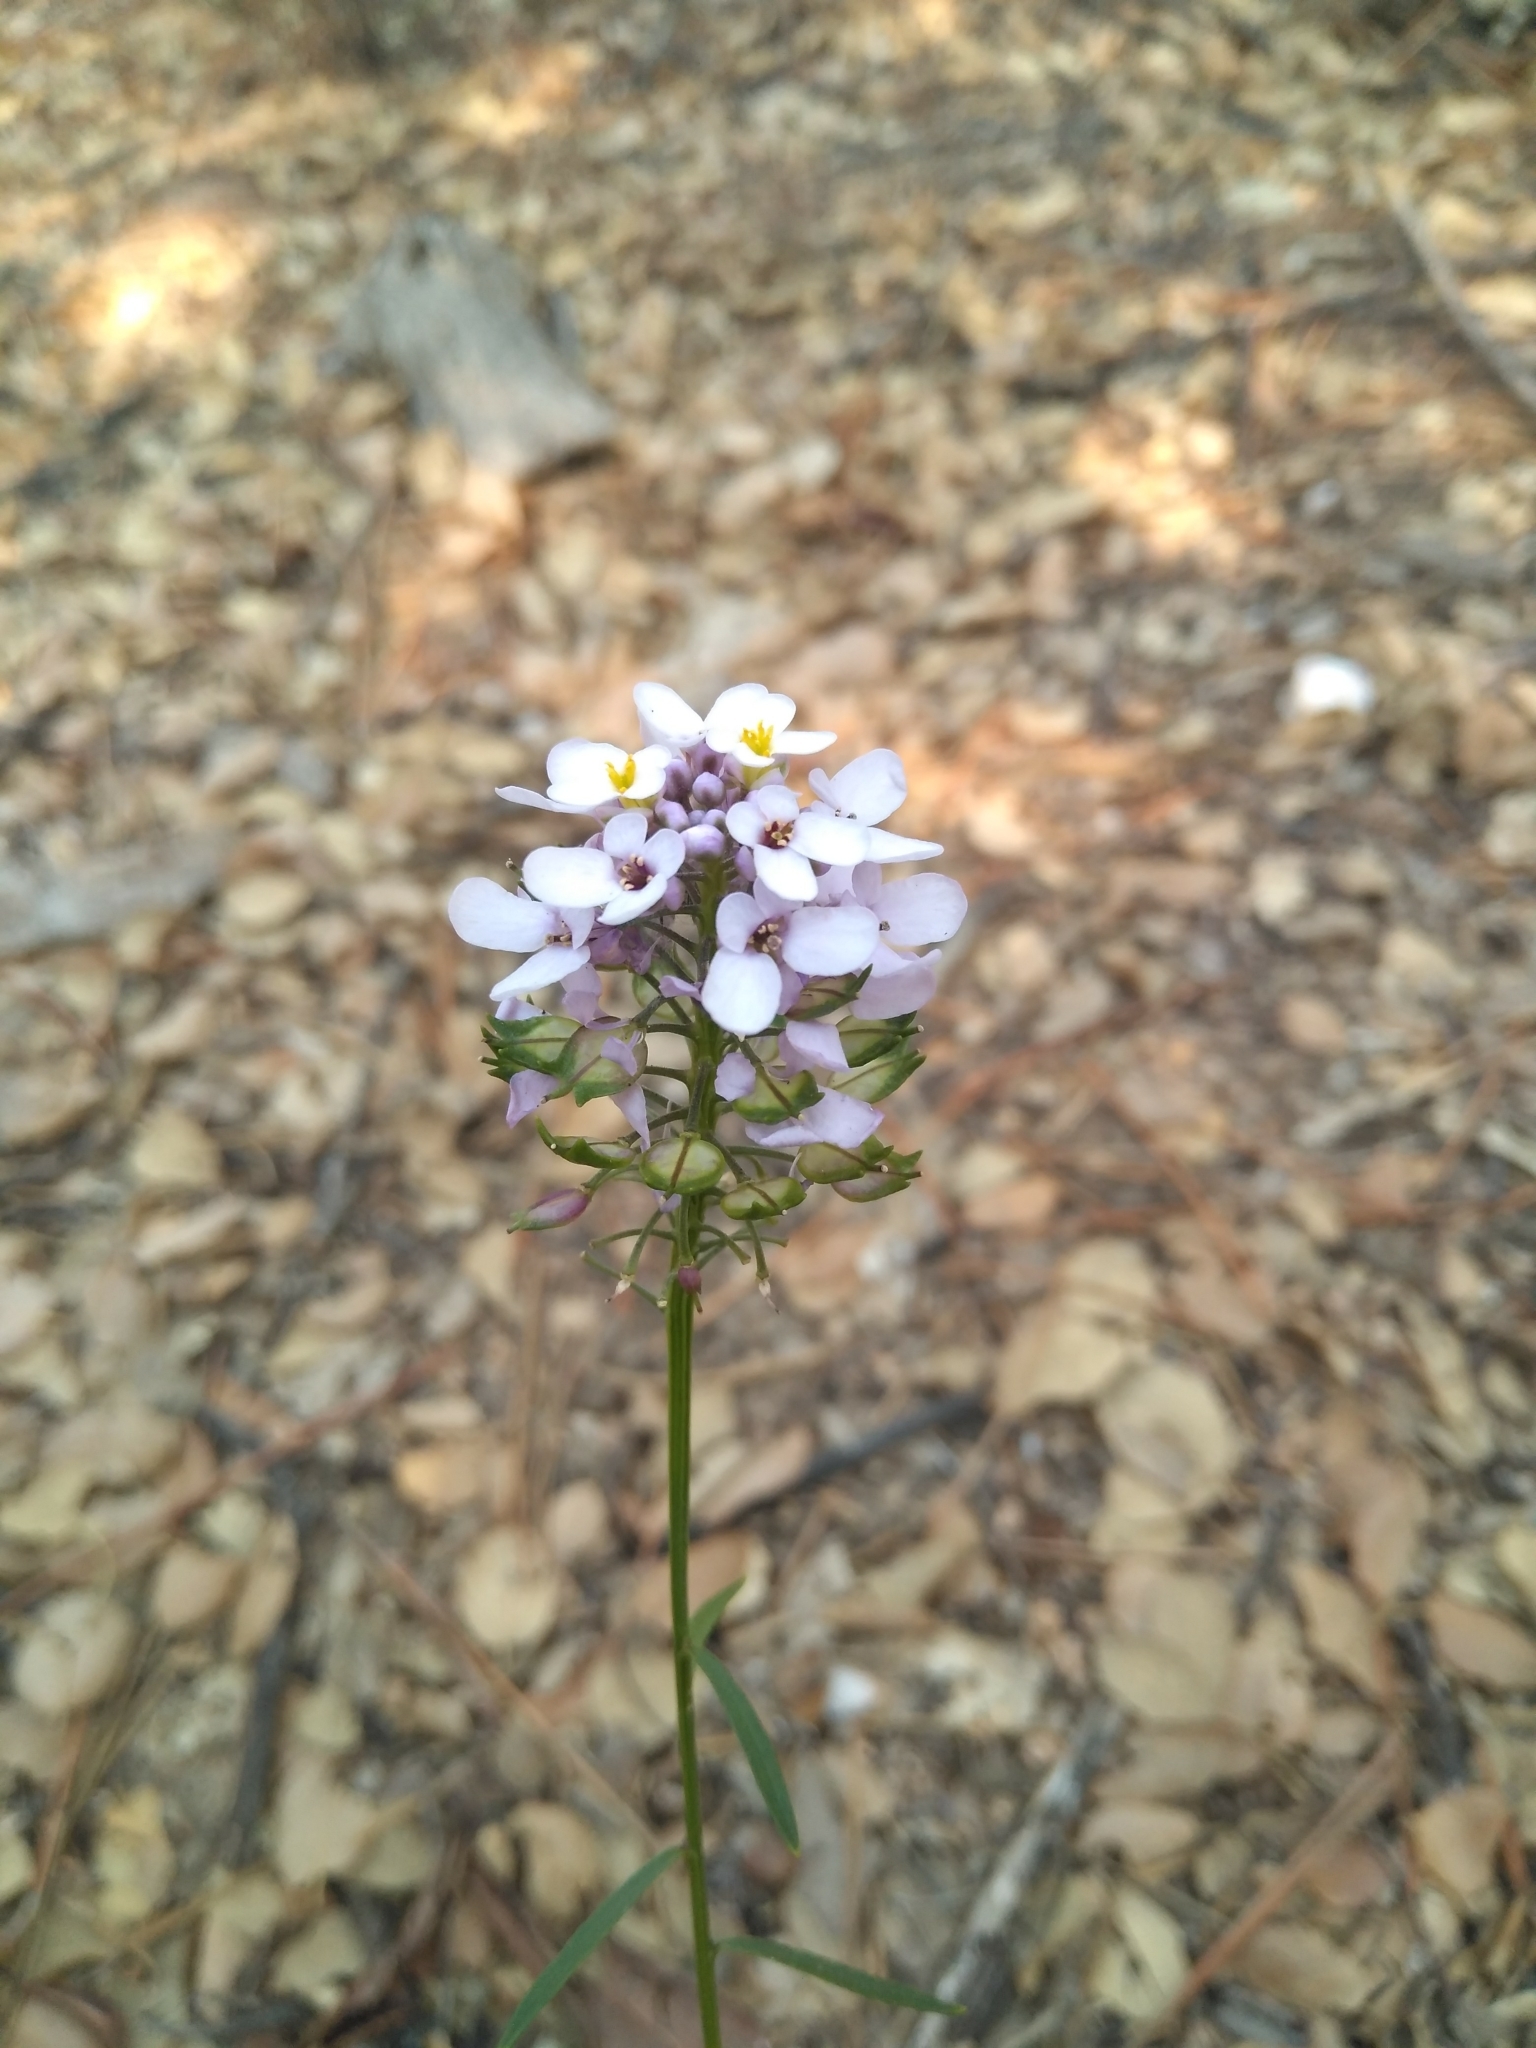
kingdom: Plantae
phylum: Tracheophyta
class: Magnoliopsida
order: Brassicales
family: Brassicaceae
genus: Iberis
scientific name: Iberis linifolia
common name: Candytuft
